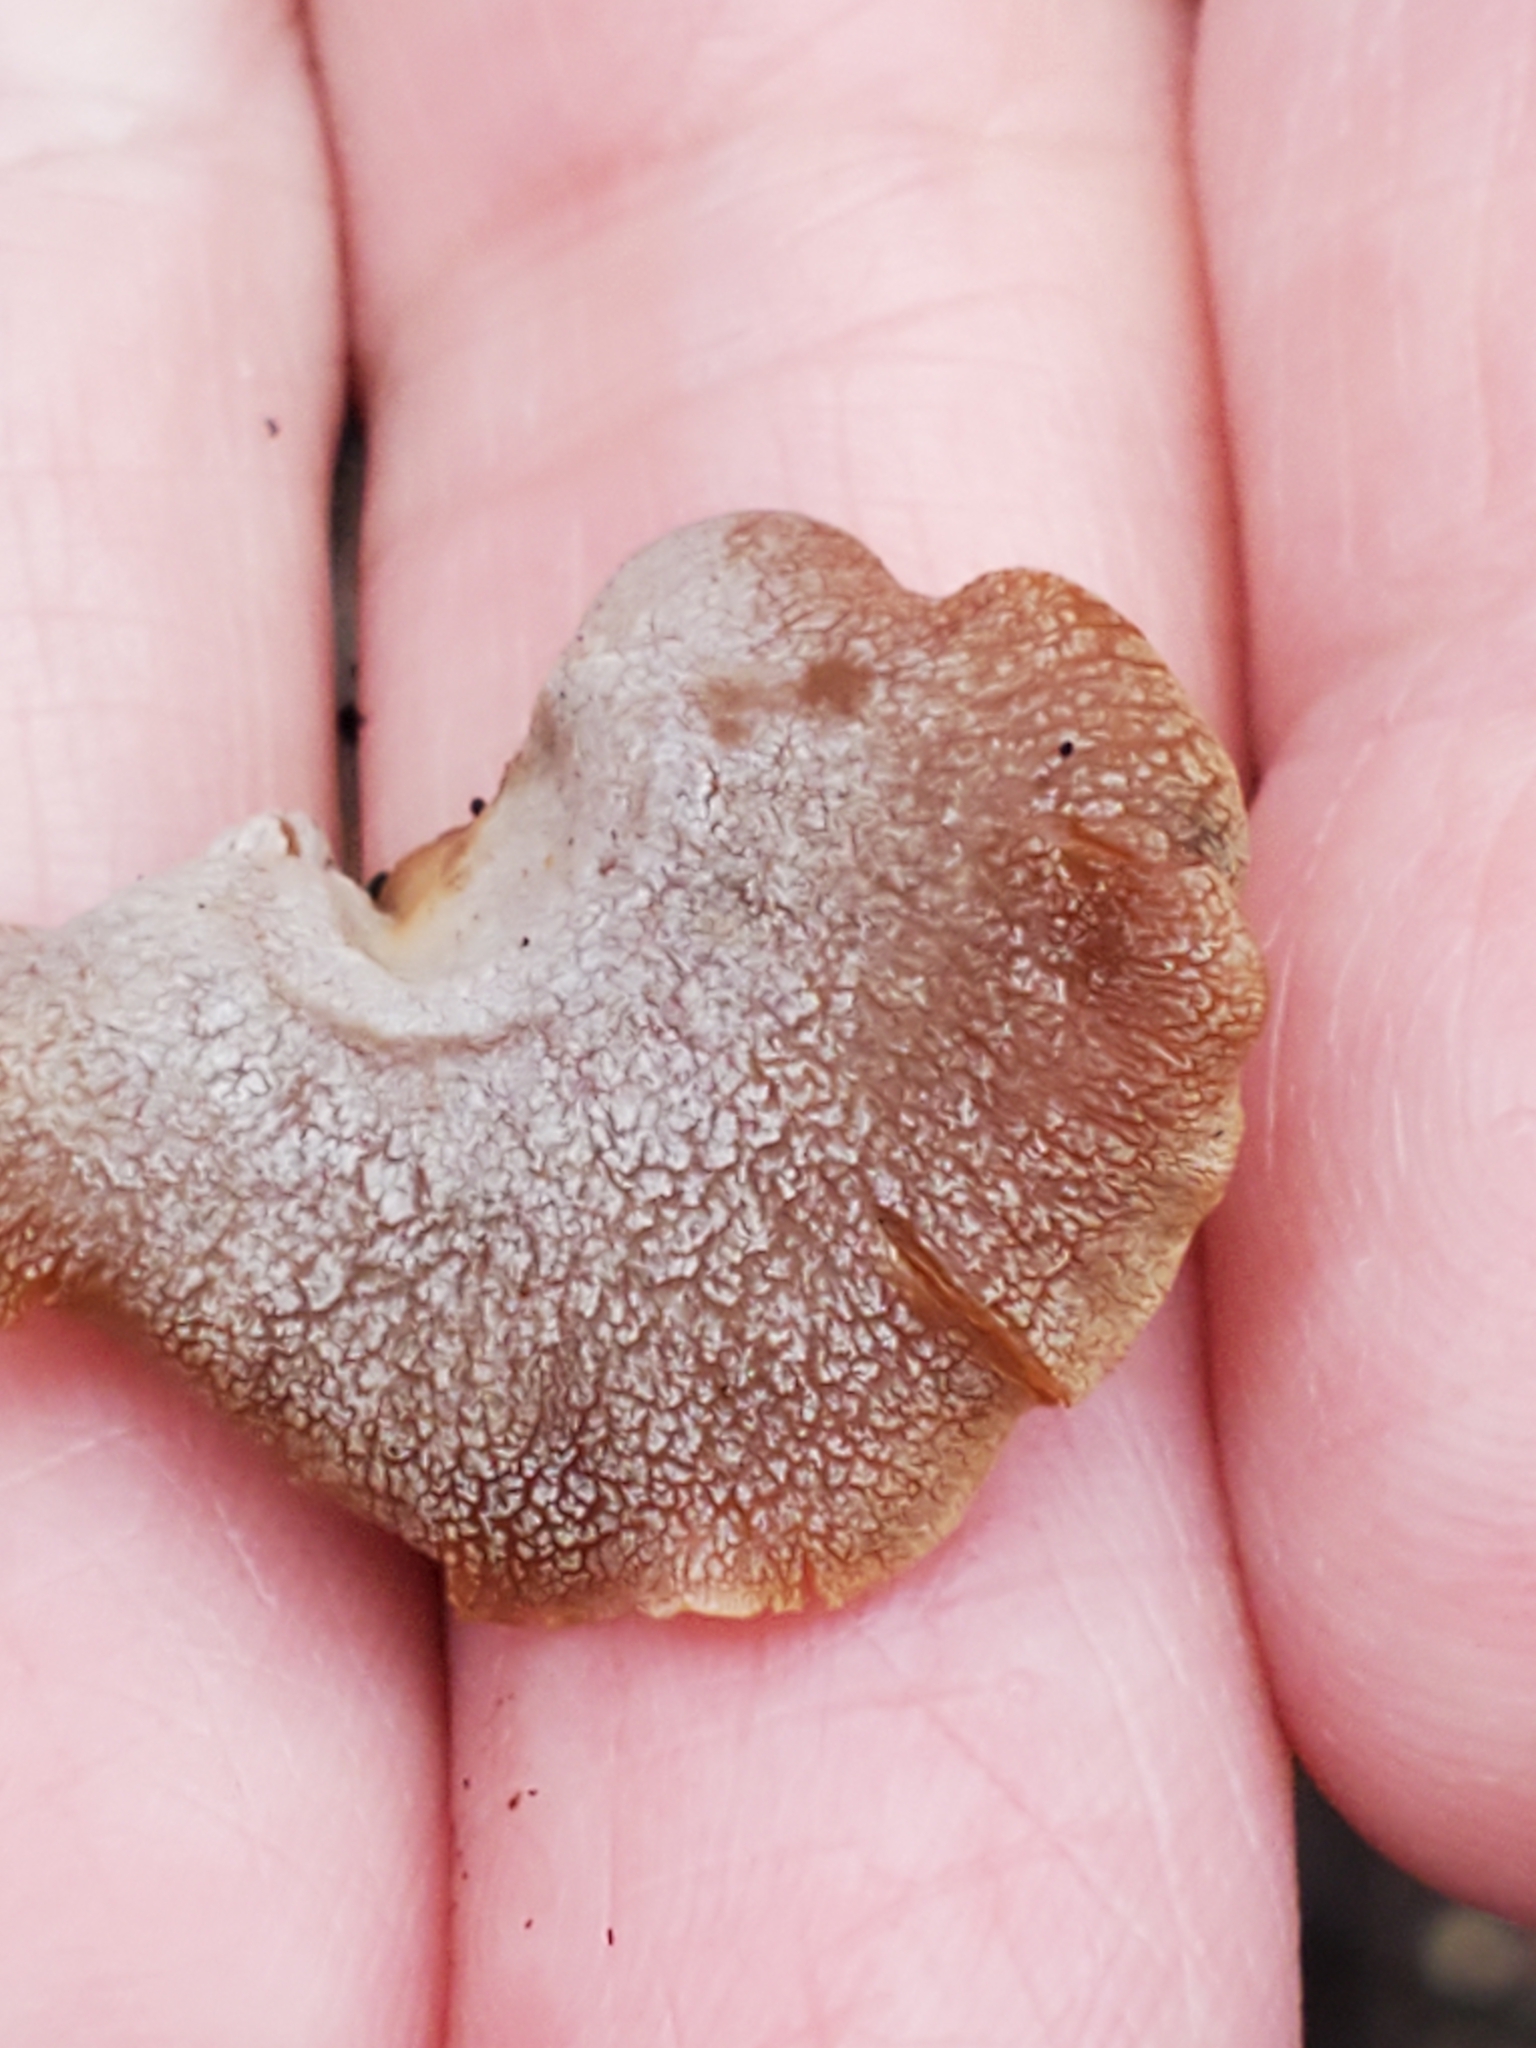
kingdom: Fungi
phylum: Basidiomycota
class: Agaricomycetes
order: Agaricales
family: Mycenaceae
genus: Panellus
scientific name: Panellus stipticus
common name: Bitter oysterling
